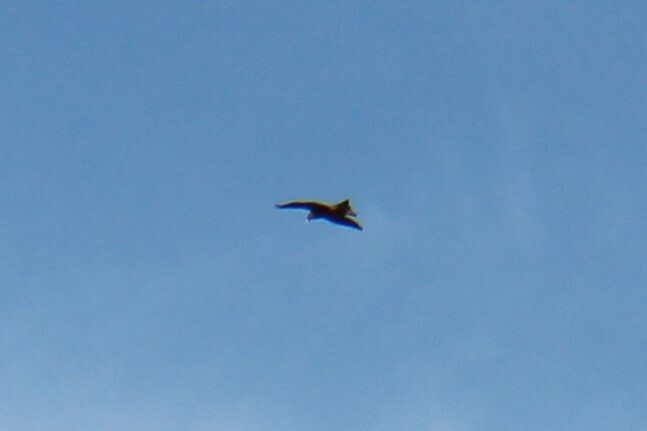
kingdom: Animalia
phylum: Chordata
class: Aves
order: Accipitriformes
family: Accipitridae
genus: Milvus
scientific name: Milvus migrans
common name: Black kite
